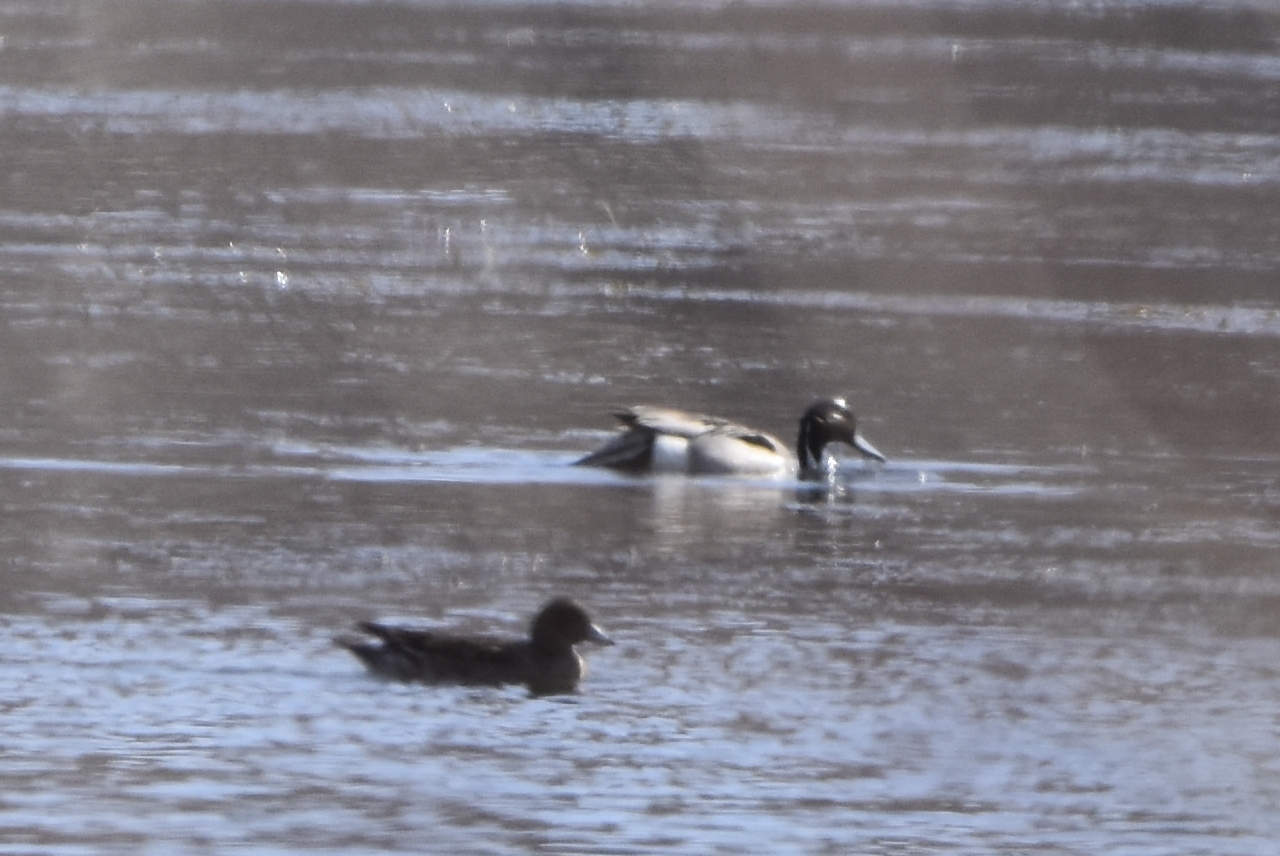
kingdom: Animalia
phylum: Chordata
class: Aves
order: Anseriformes
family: Anatidae
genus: Anas
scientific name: Anas acuta
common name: Northern pintail
